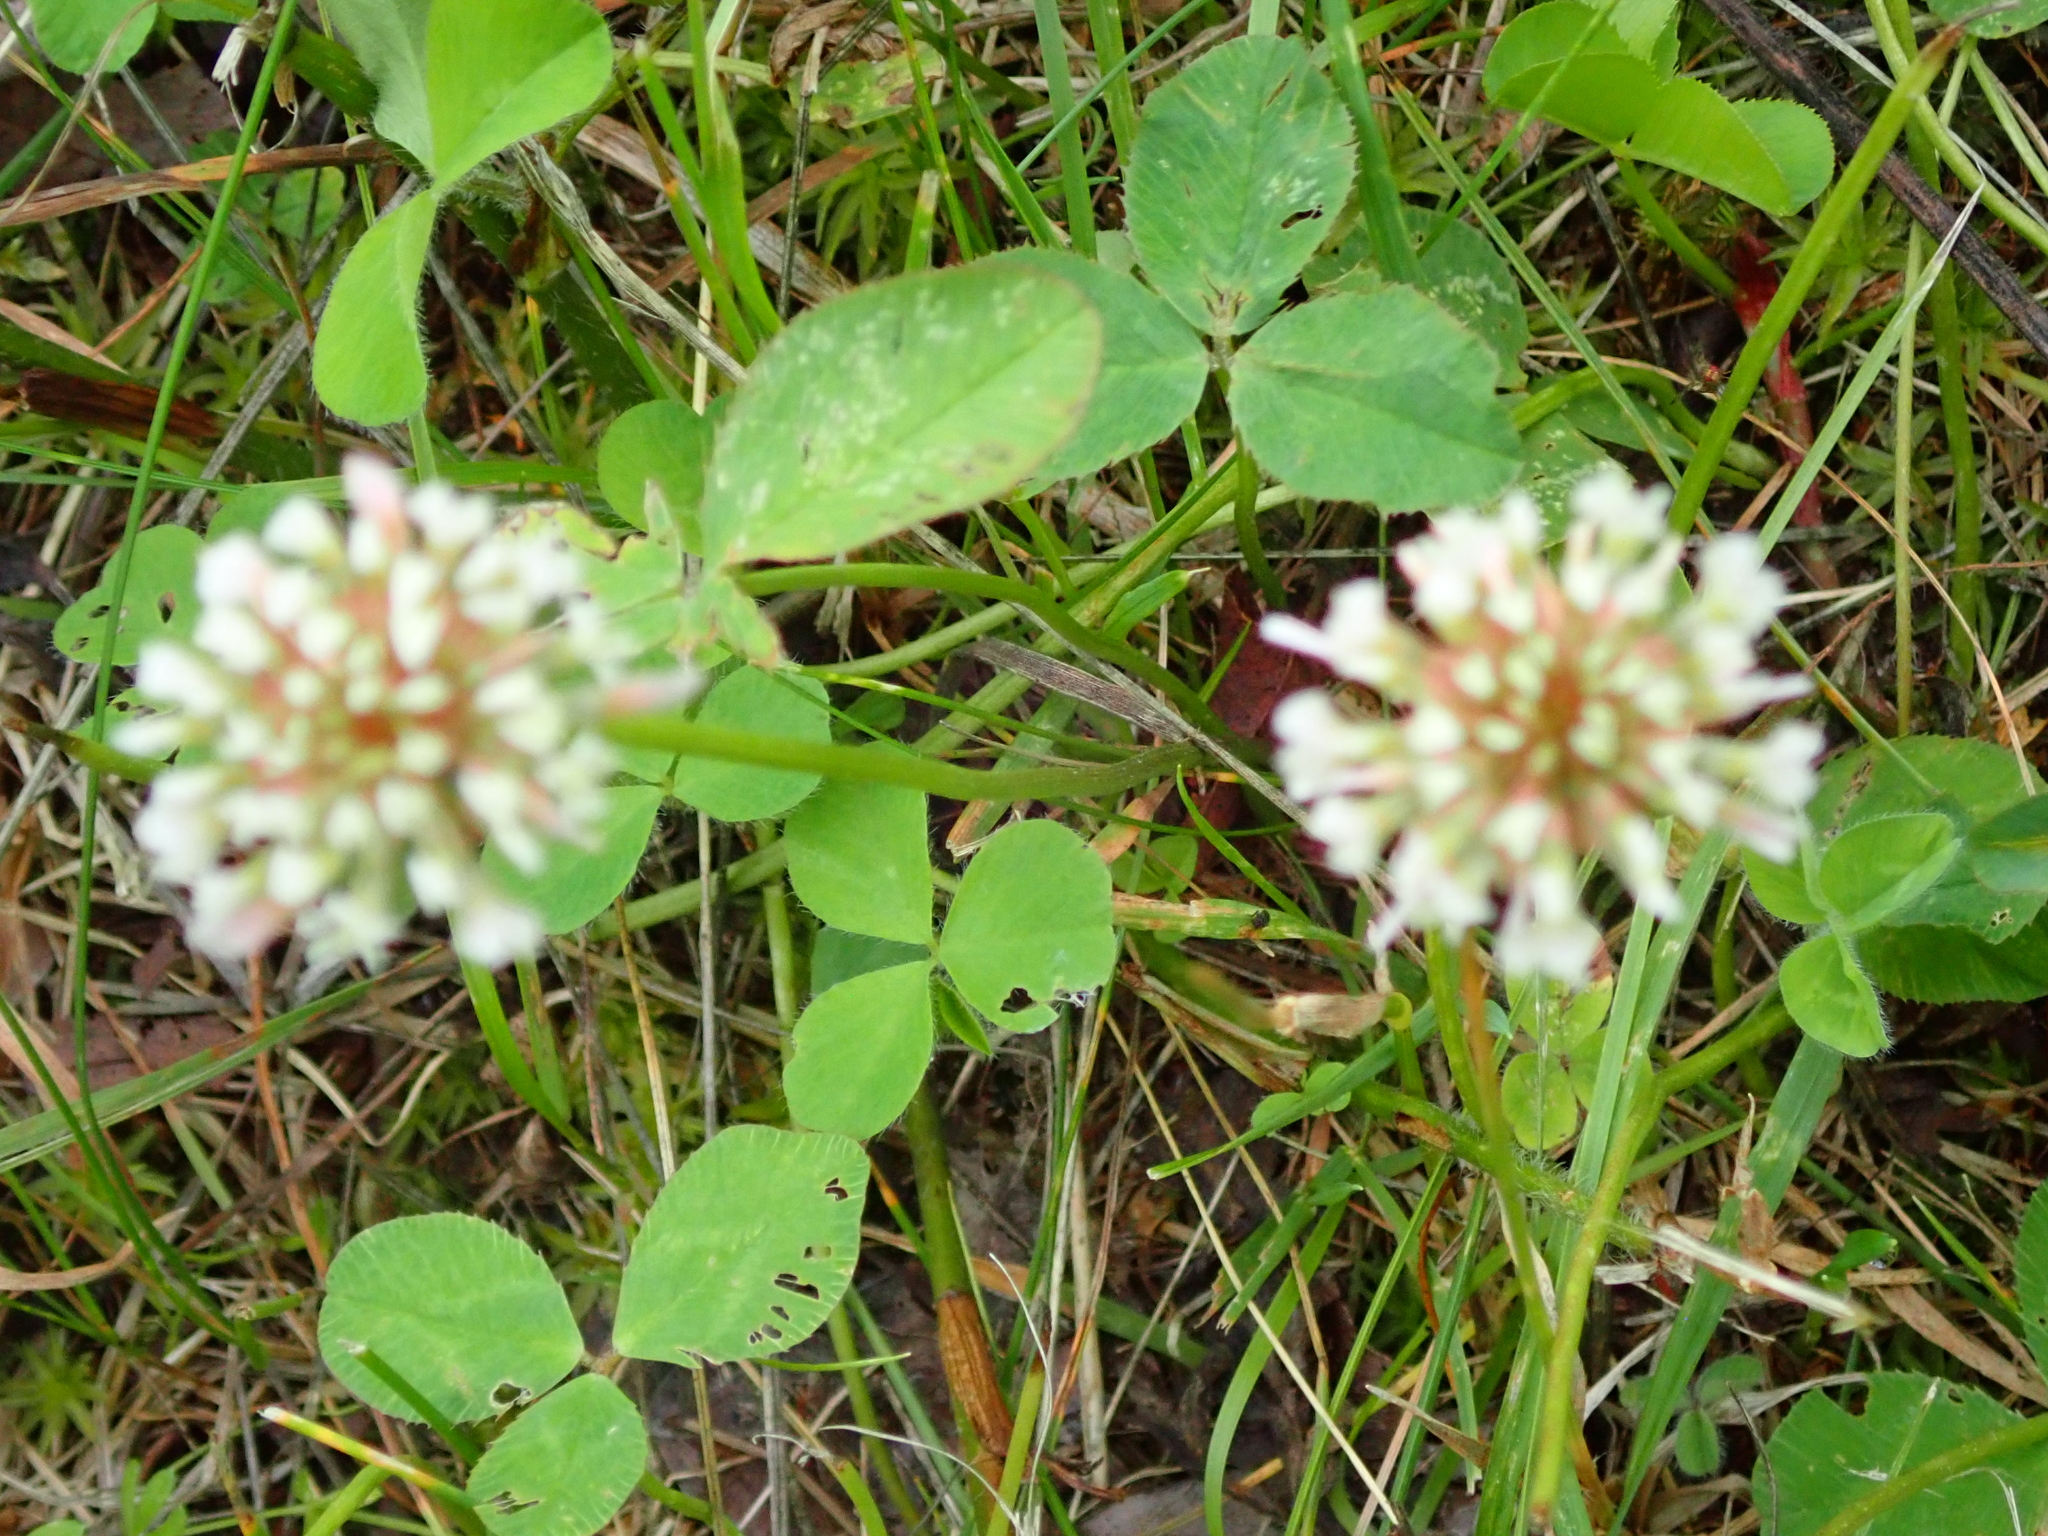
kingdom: Plantae
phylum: Tracheophyta
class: Magnoliopsida
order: Fabales
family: Fabaceae
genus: Trifolium
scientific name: Trifolium repens
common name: White clover
